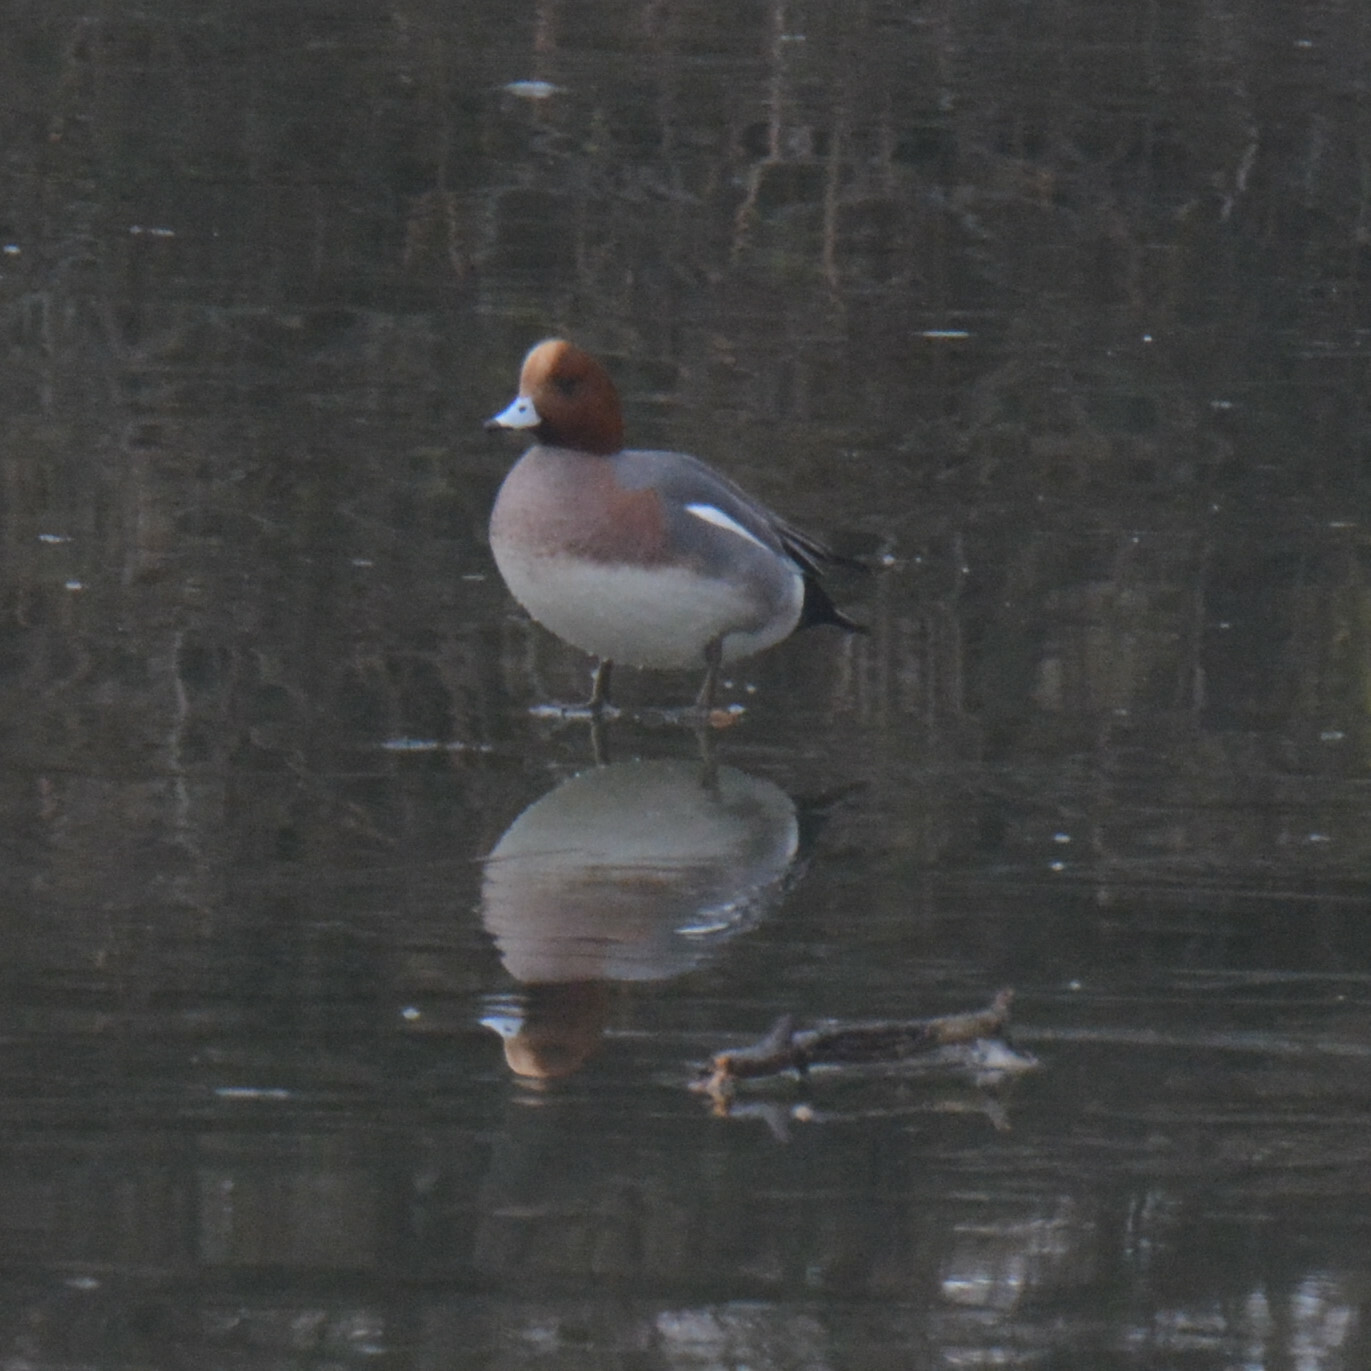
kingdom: Animalia
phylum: Chordata
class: Aves
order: Anseriformes
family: Anatidae
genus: Mareca
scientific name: Mareca penelope
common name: Eurasian wigeon
